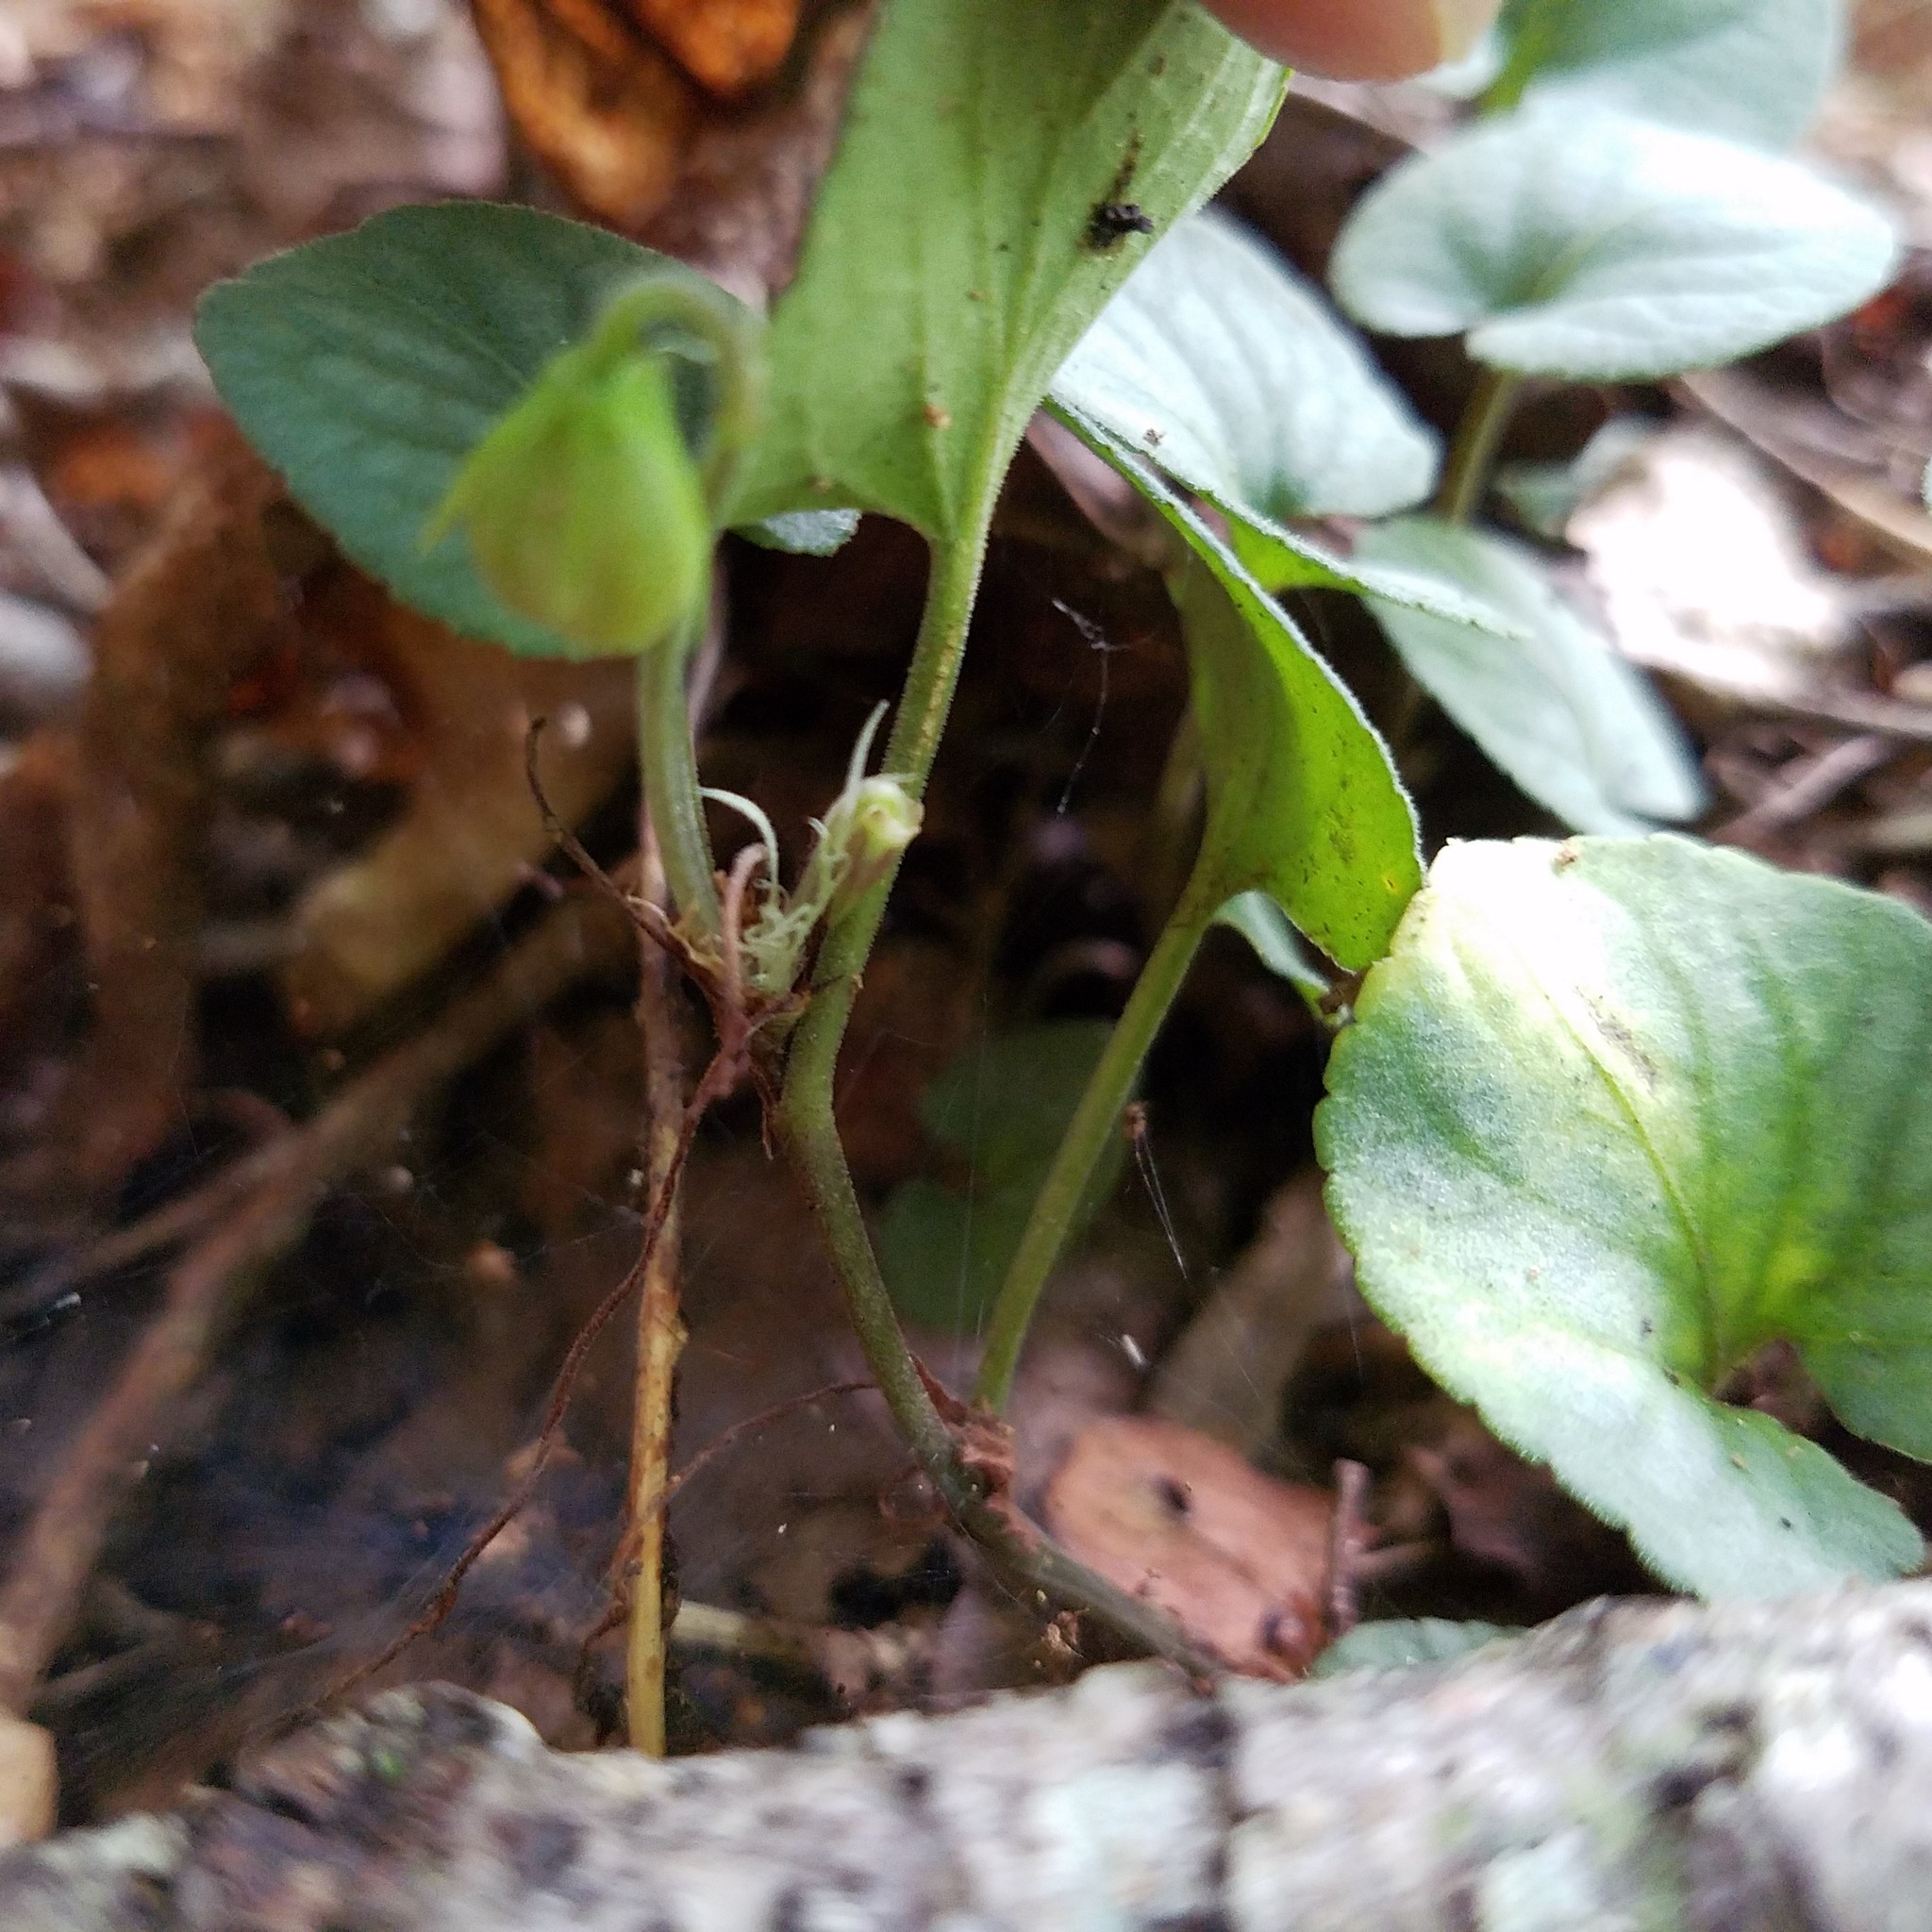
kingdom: Plantae
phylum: Tracheophyta
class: Magnoliopsida
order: Malpighiales
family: Violaceae
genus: Viola
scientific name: Viola walteri
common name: Prostrate southern violet
